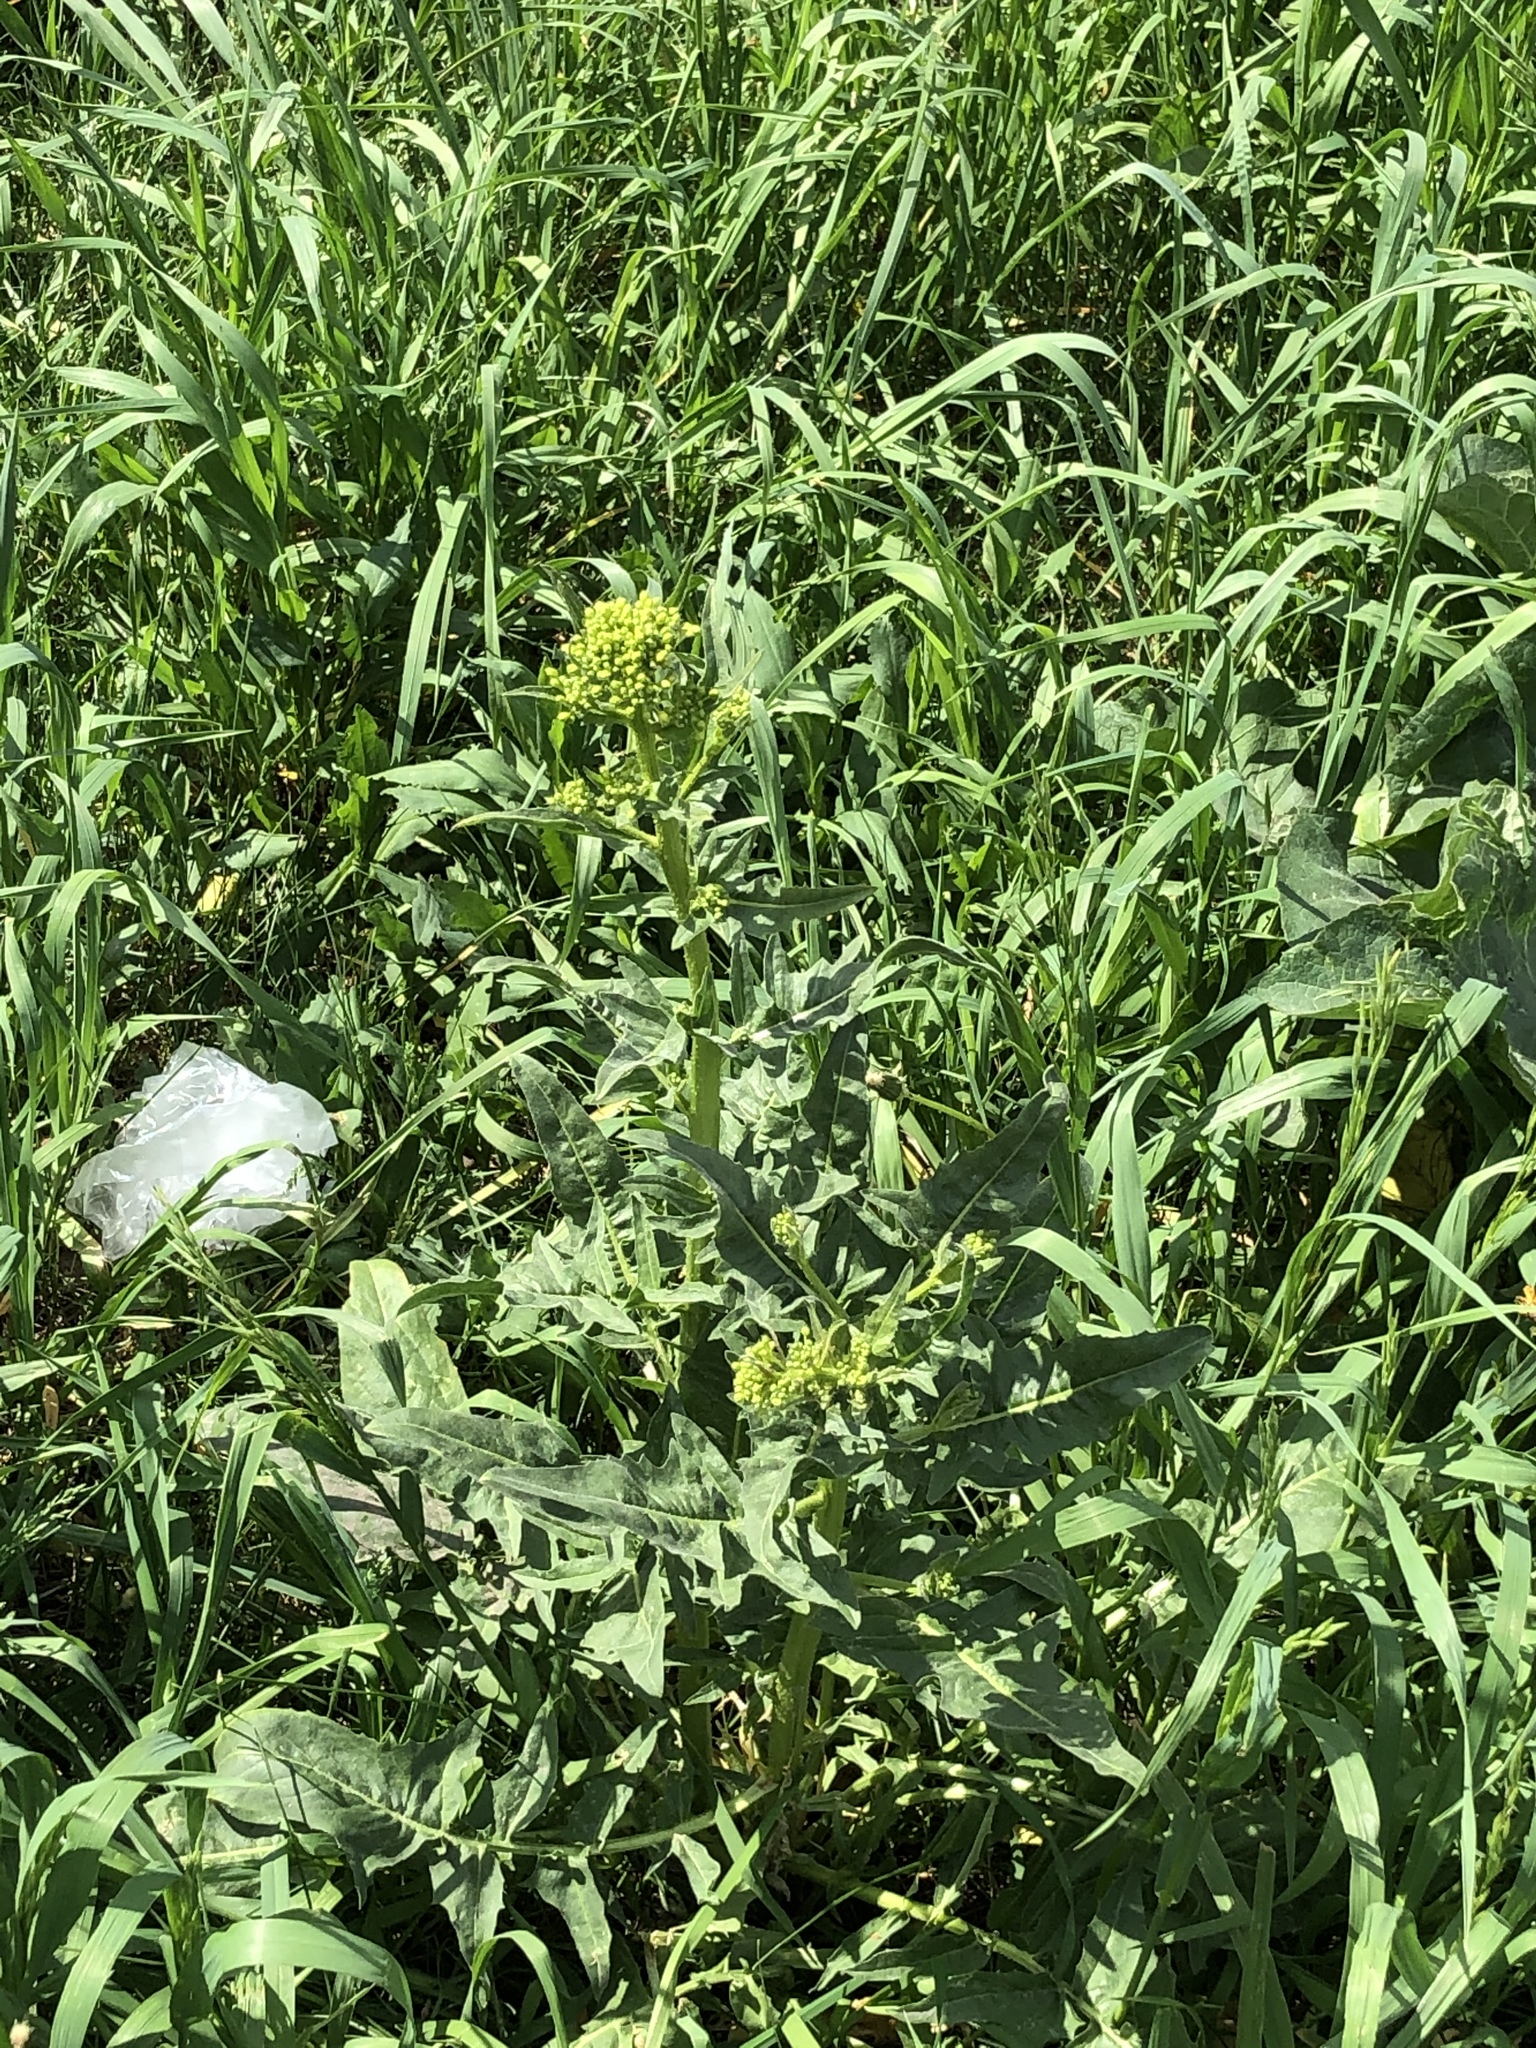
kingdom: Plantae
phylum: Tracheophyta
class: Magnoliopsida
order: Brassicales
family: Brassicaceae
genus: Barbarea
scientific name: Barbarea vulgaris
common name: Cressy-greens
